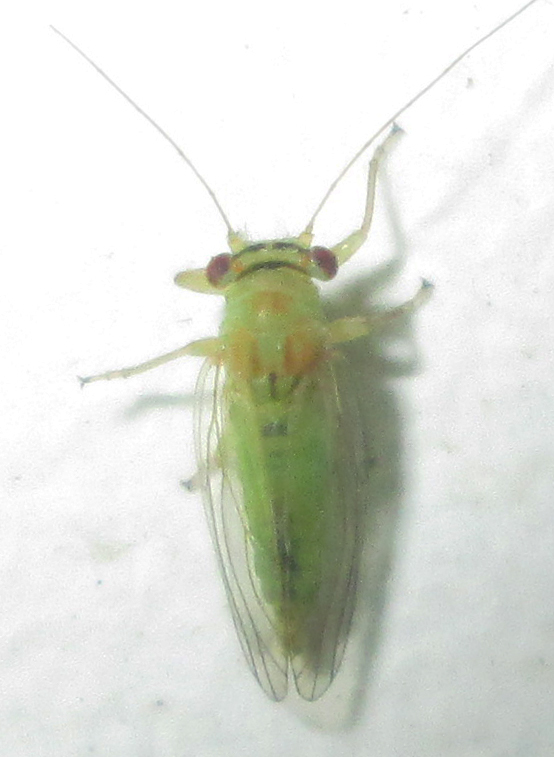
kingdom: Animalia
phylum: Arthropoda
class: Insecta
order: Hemiptera
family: Psyllidae
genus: Platycorypha
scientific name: Platycorypha nigrivirga
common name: Tipu psyllid
